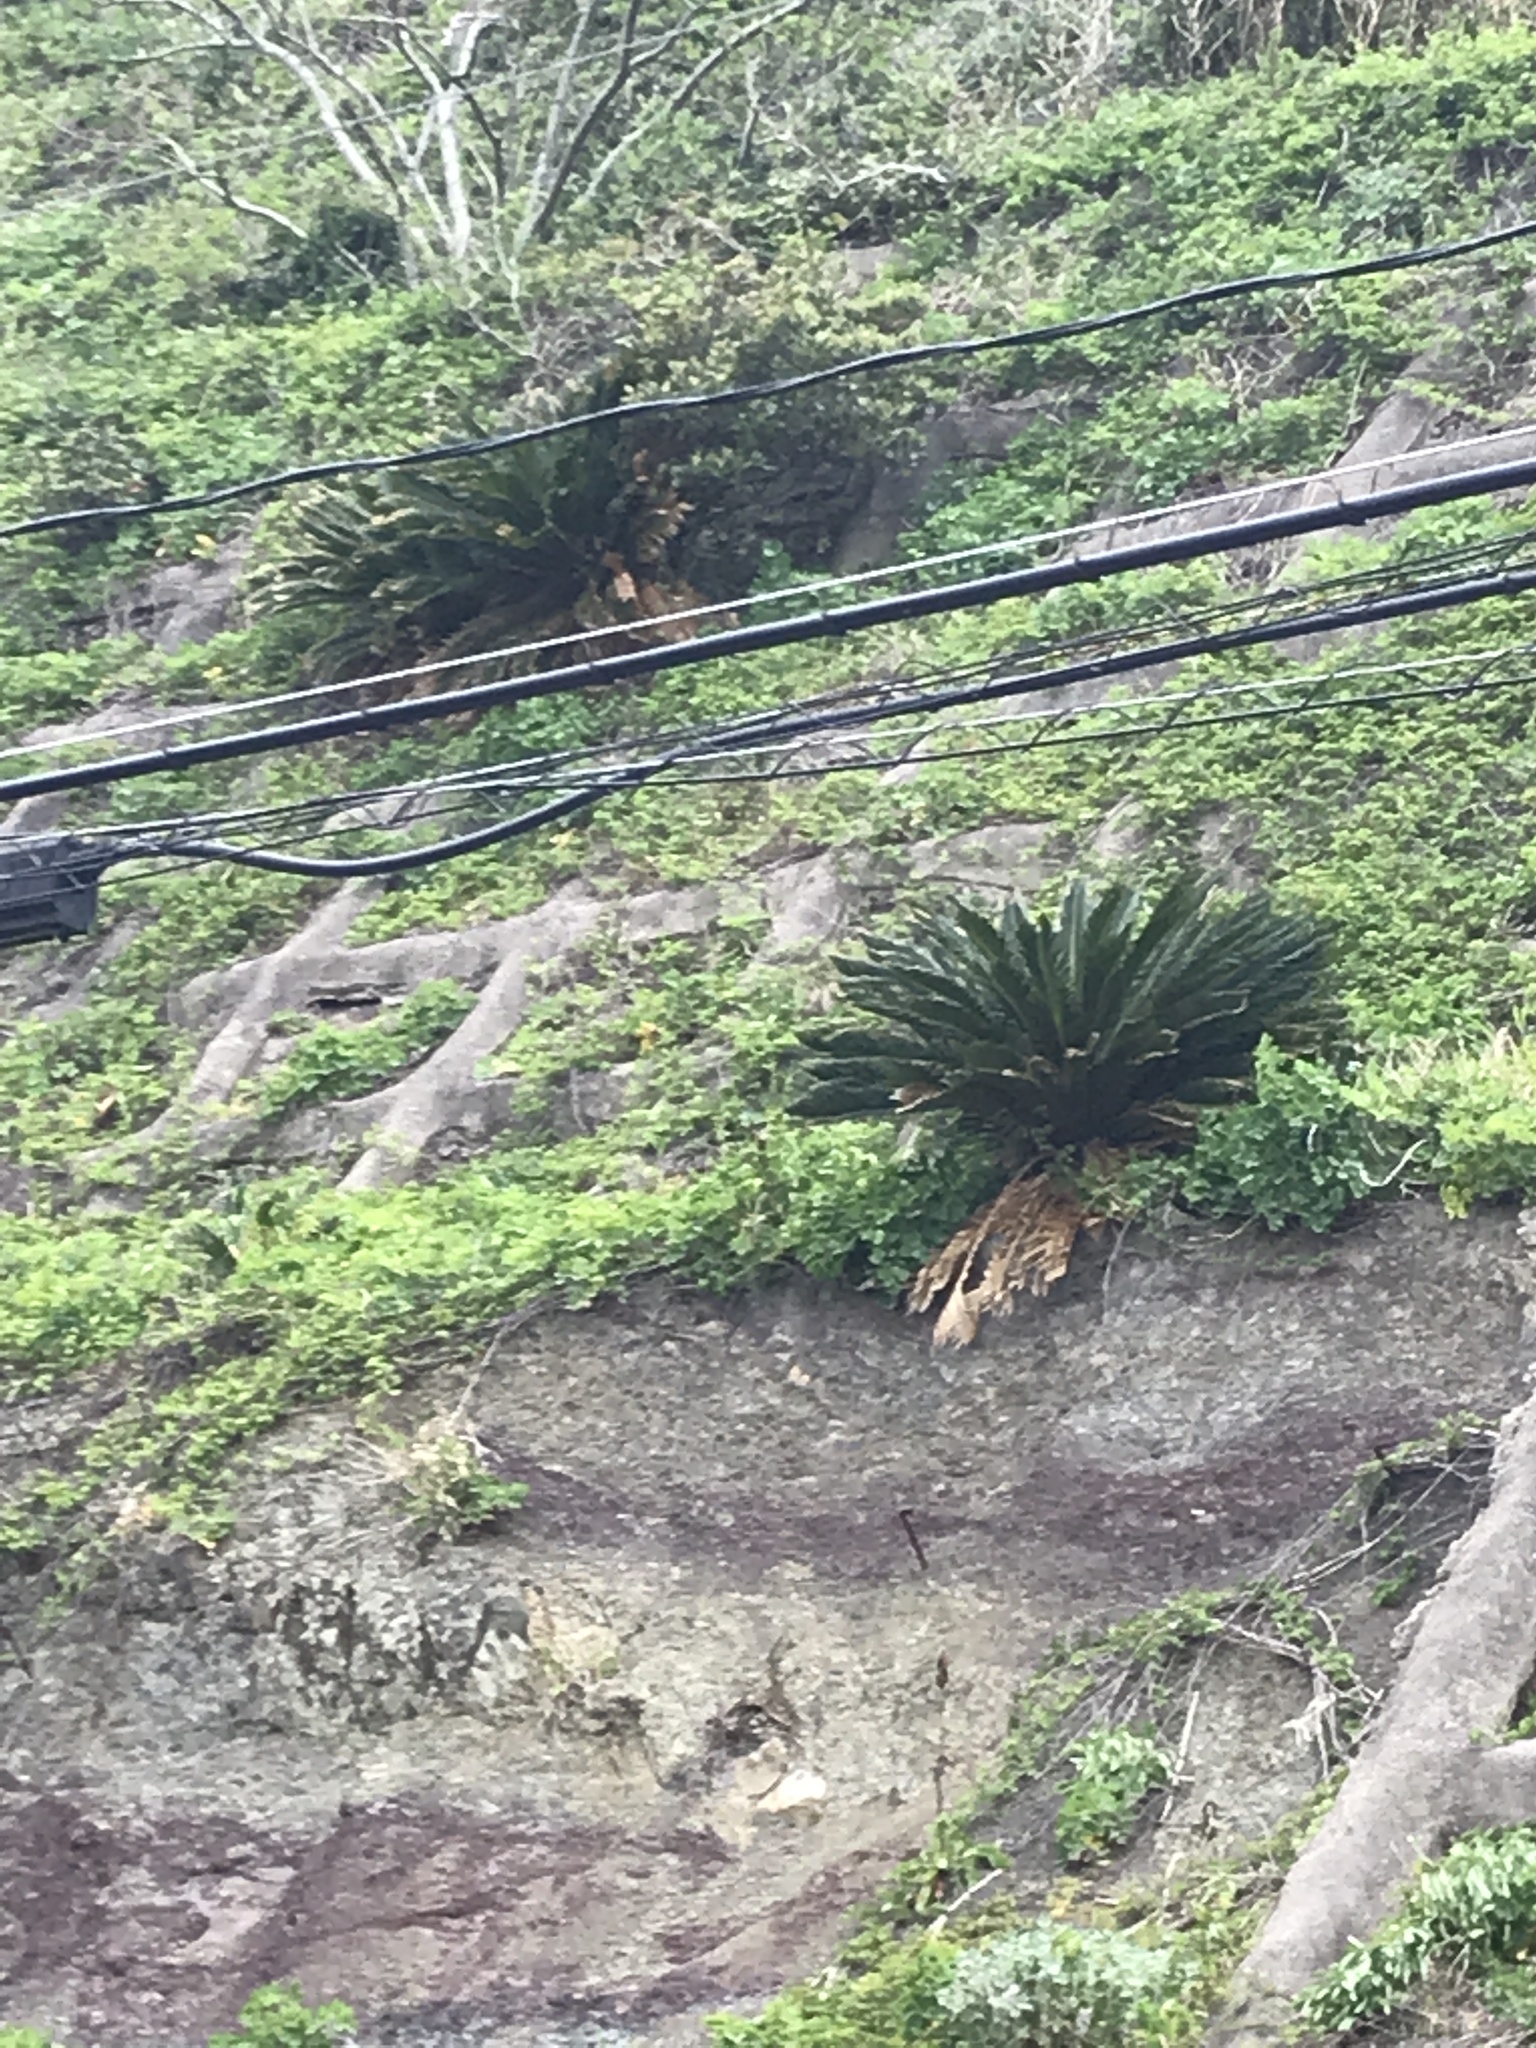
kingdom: Plantae
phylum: Tracheophyta
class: Cycadopsida
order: Cycadales
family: Cycadaceae
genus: Cycas
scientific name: Cycas revoluta
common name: Sago palm
